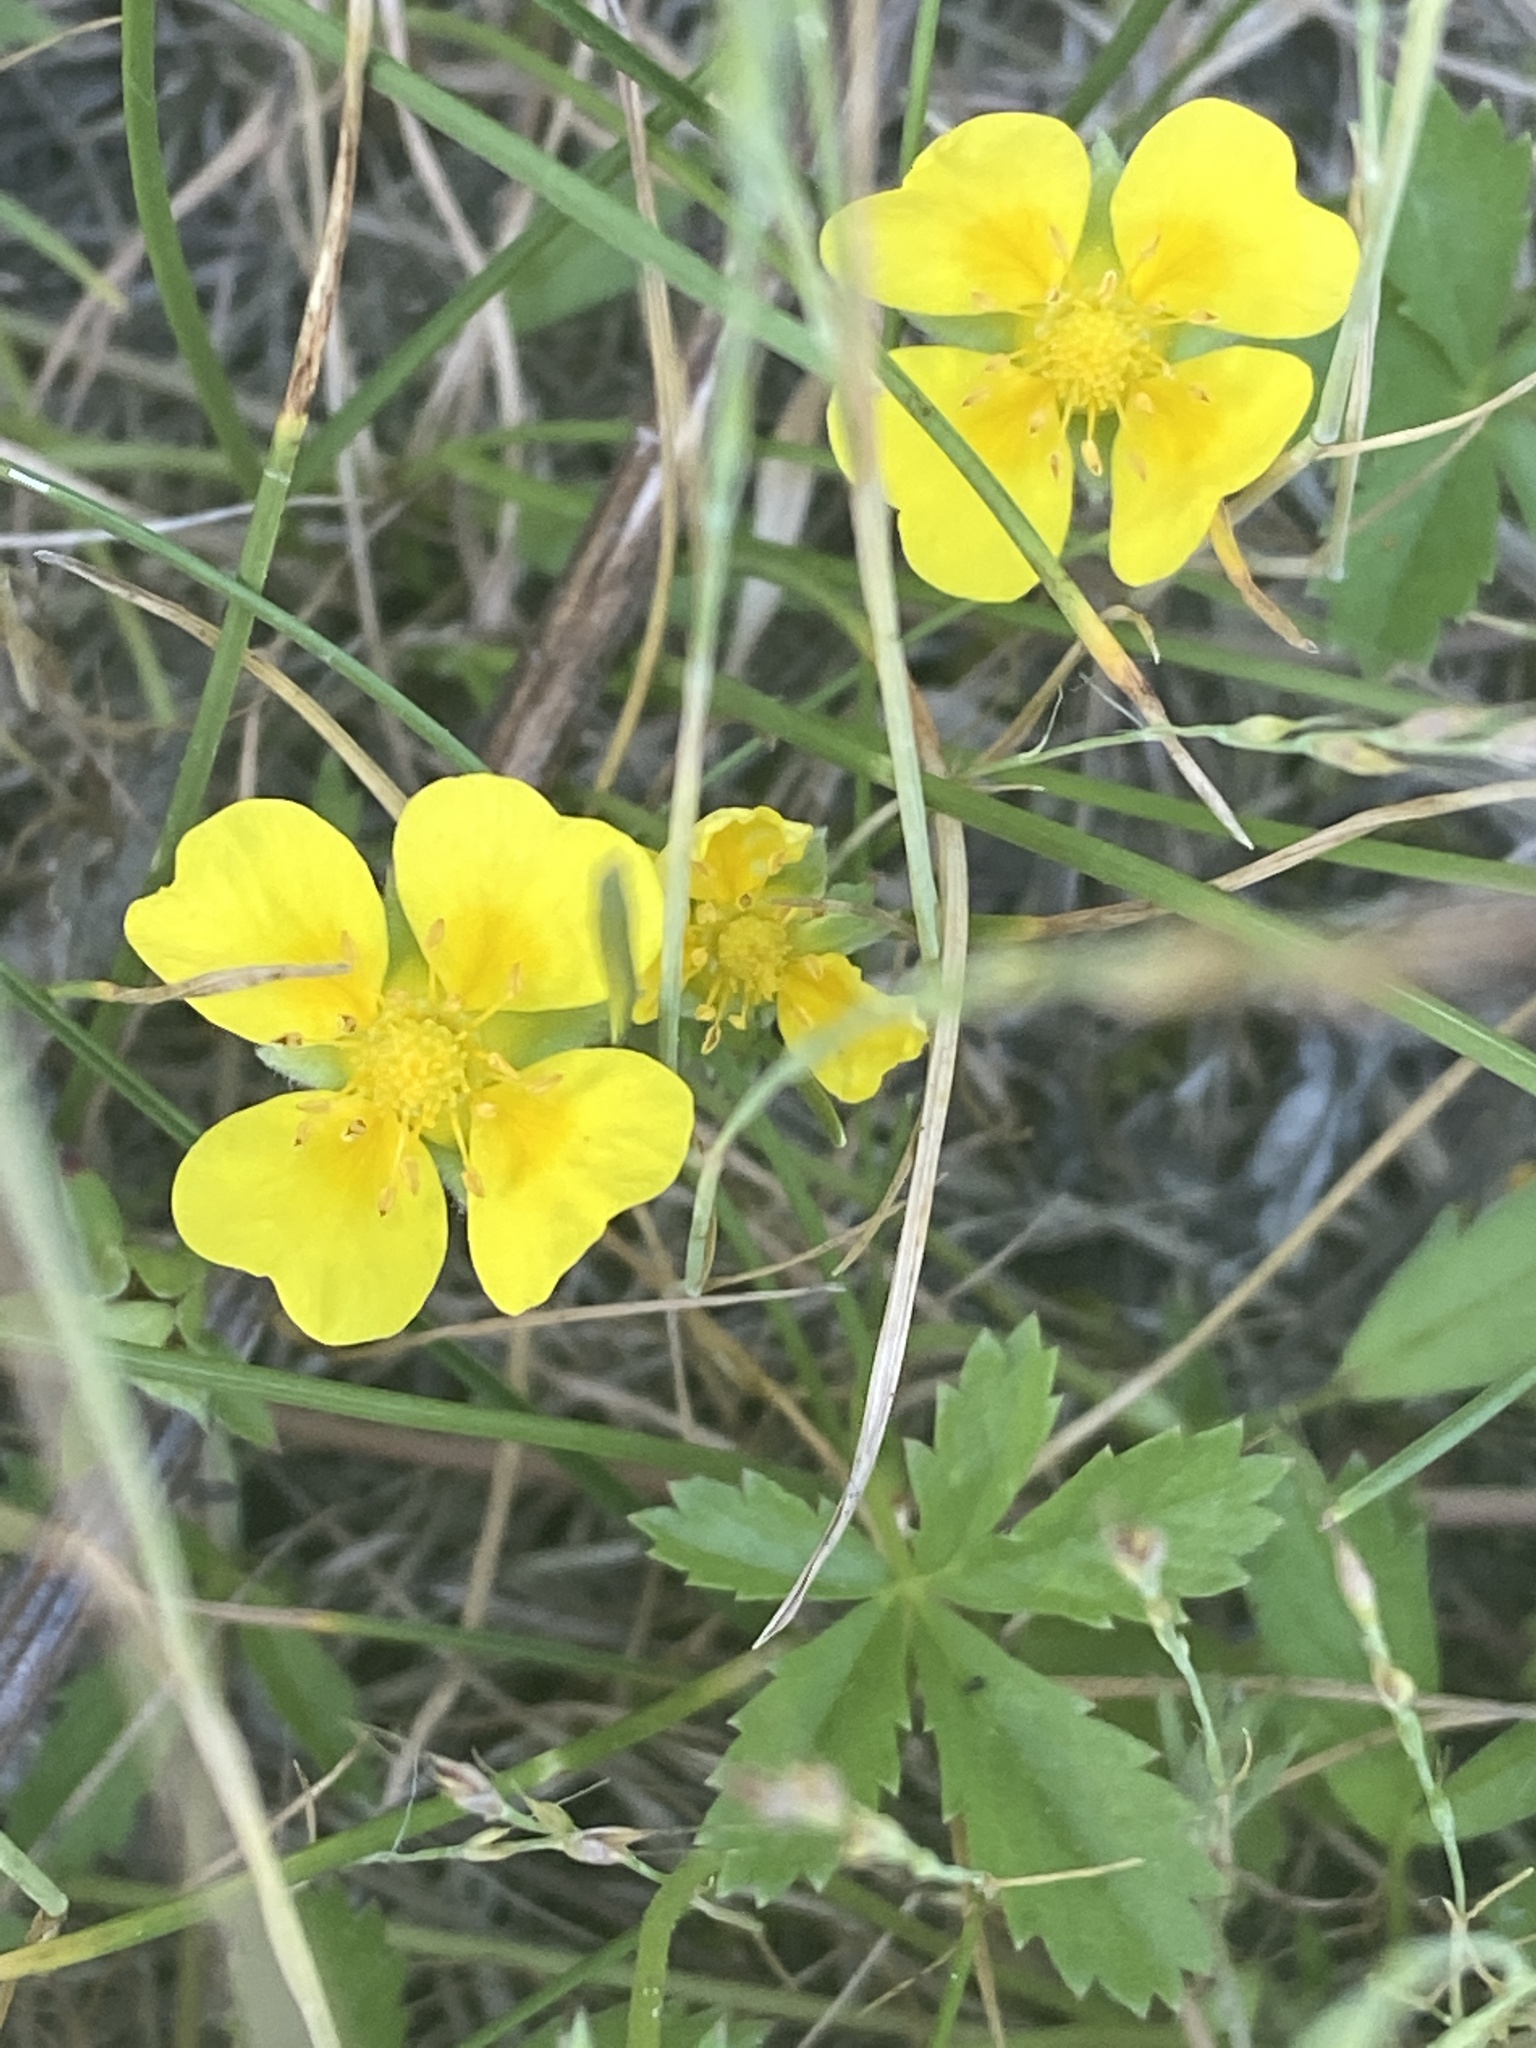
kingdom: Plantae
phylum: Tracheophyta
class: Magnoliopsida
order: Rosales
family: Rosaceae
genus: Potentilla
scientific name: Potentilla erecta
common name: Tormentil
